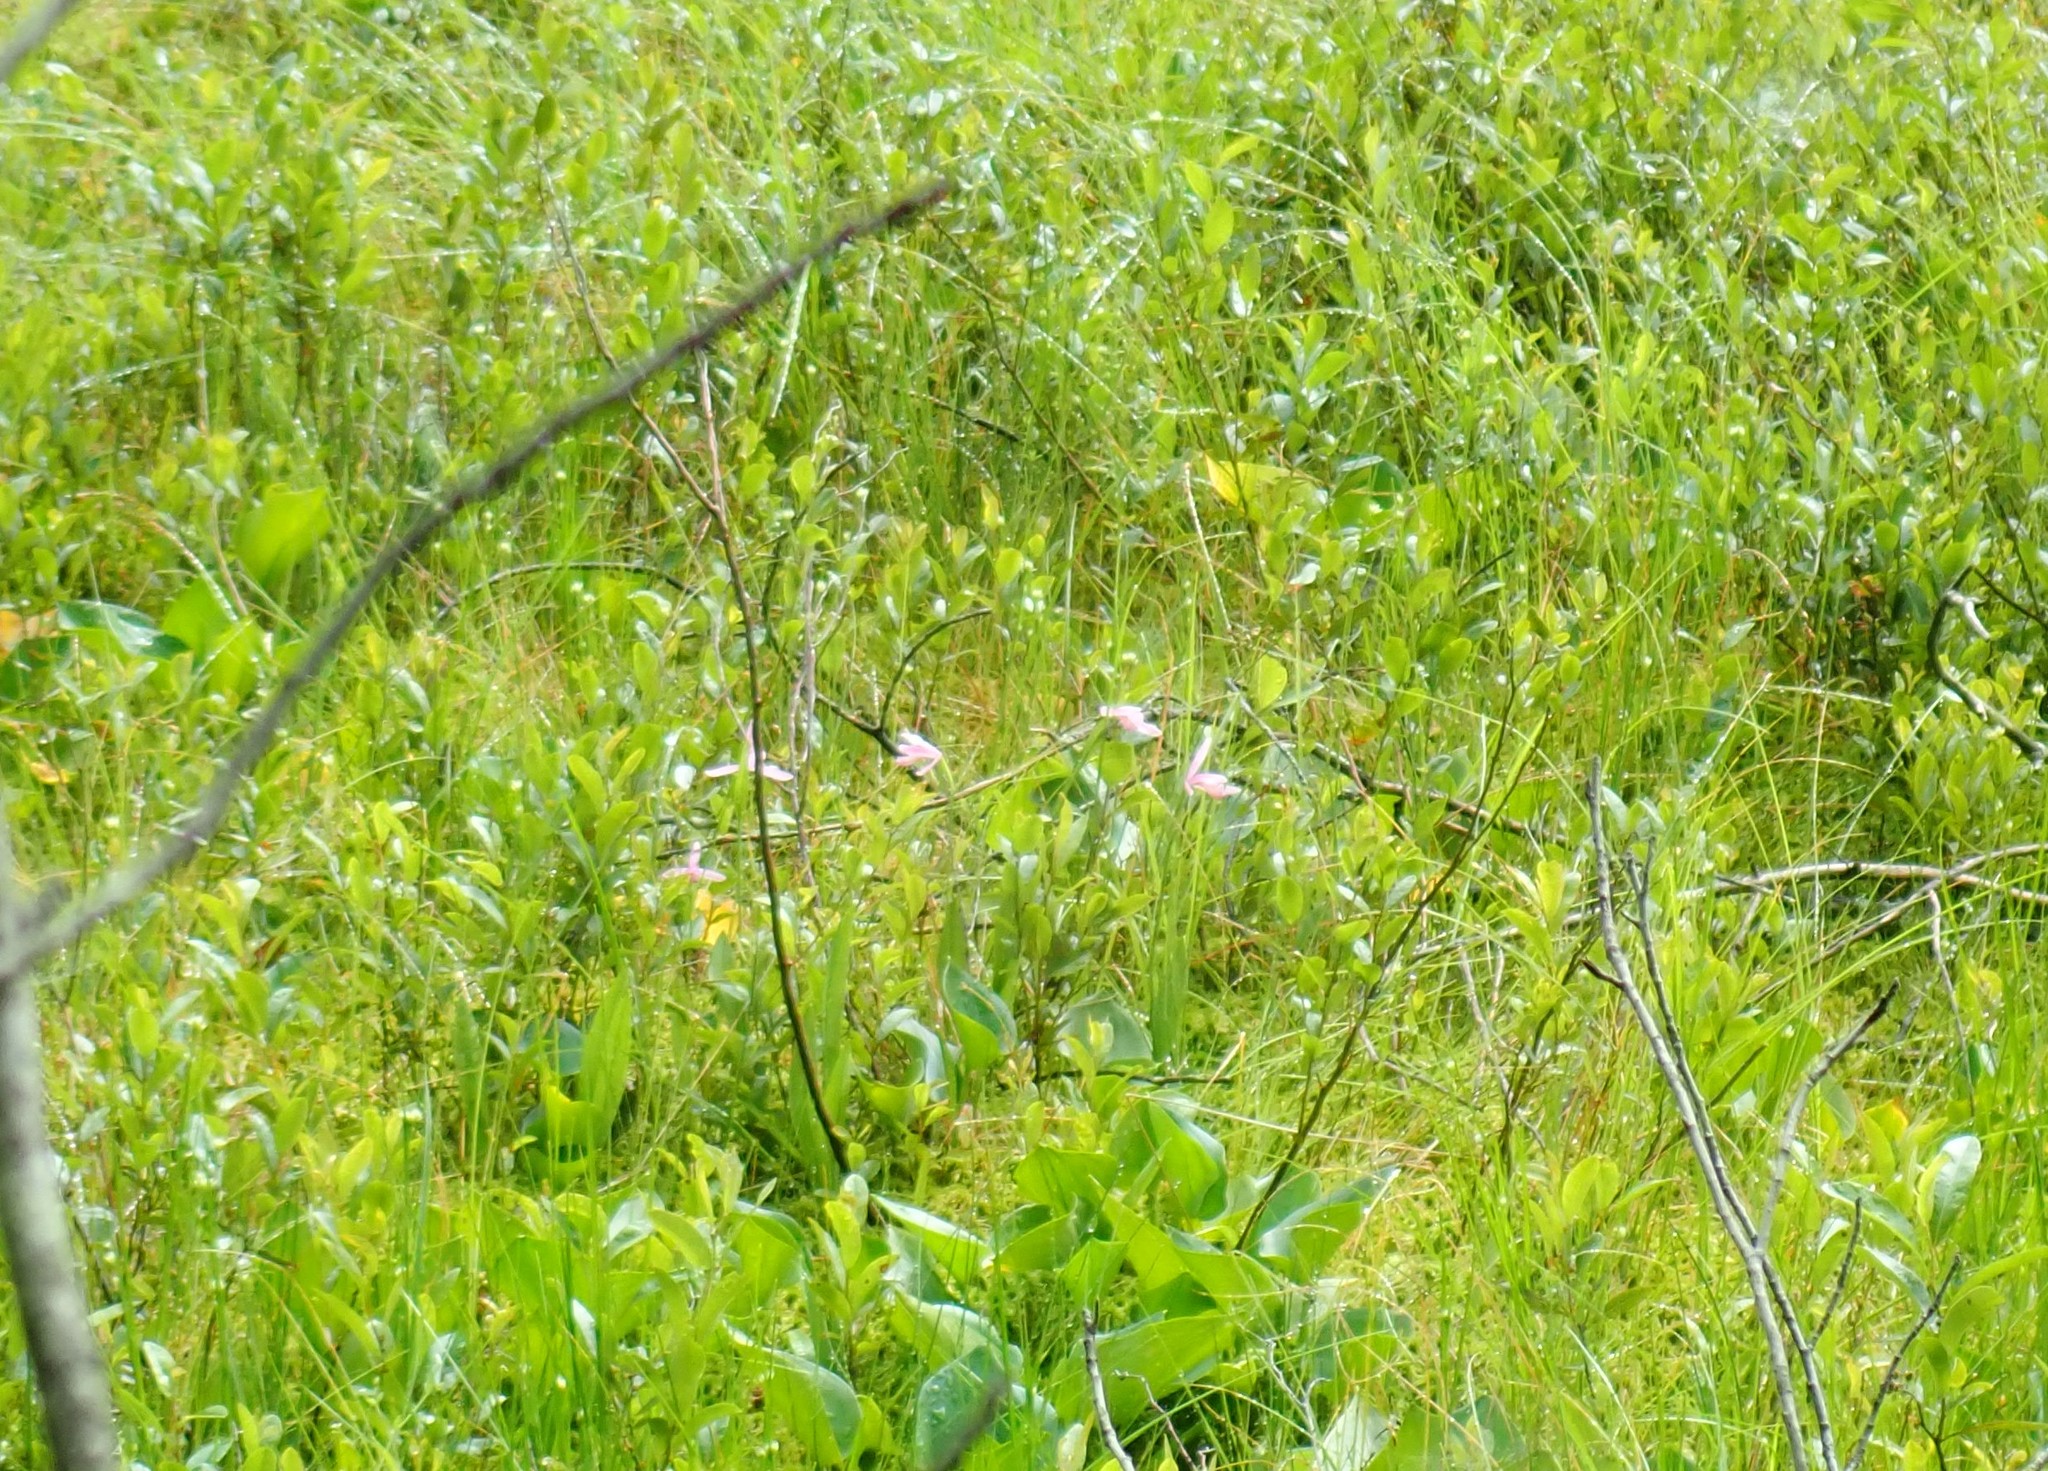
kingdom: Plantae
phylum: Tracheophyta
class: Liliopsida
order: Asparagales
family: Orchidaceae
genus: Pogonia
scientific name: Pogonia ophioglossoides
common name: Rose pogonia
